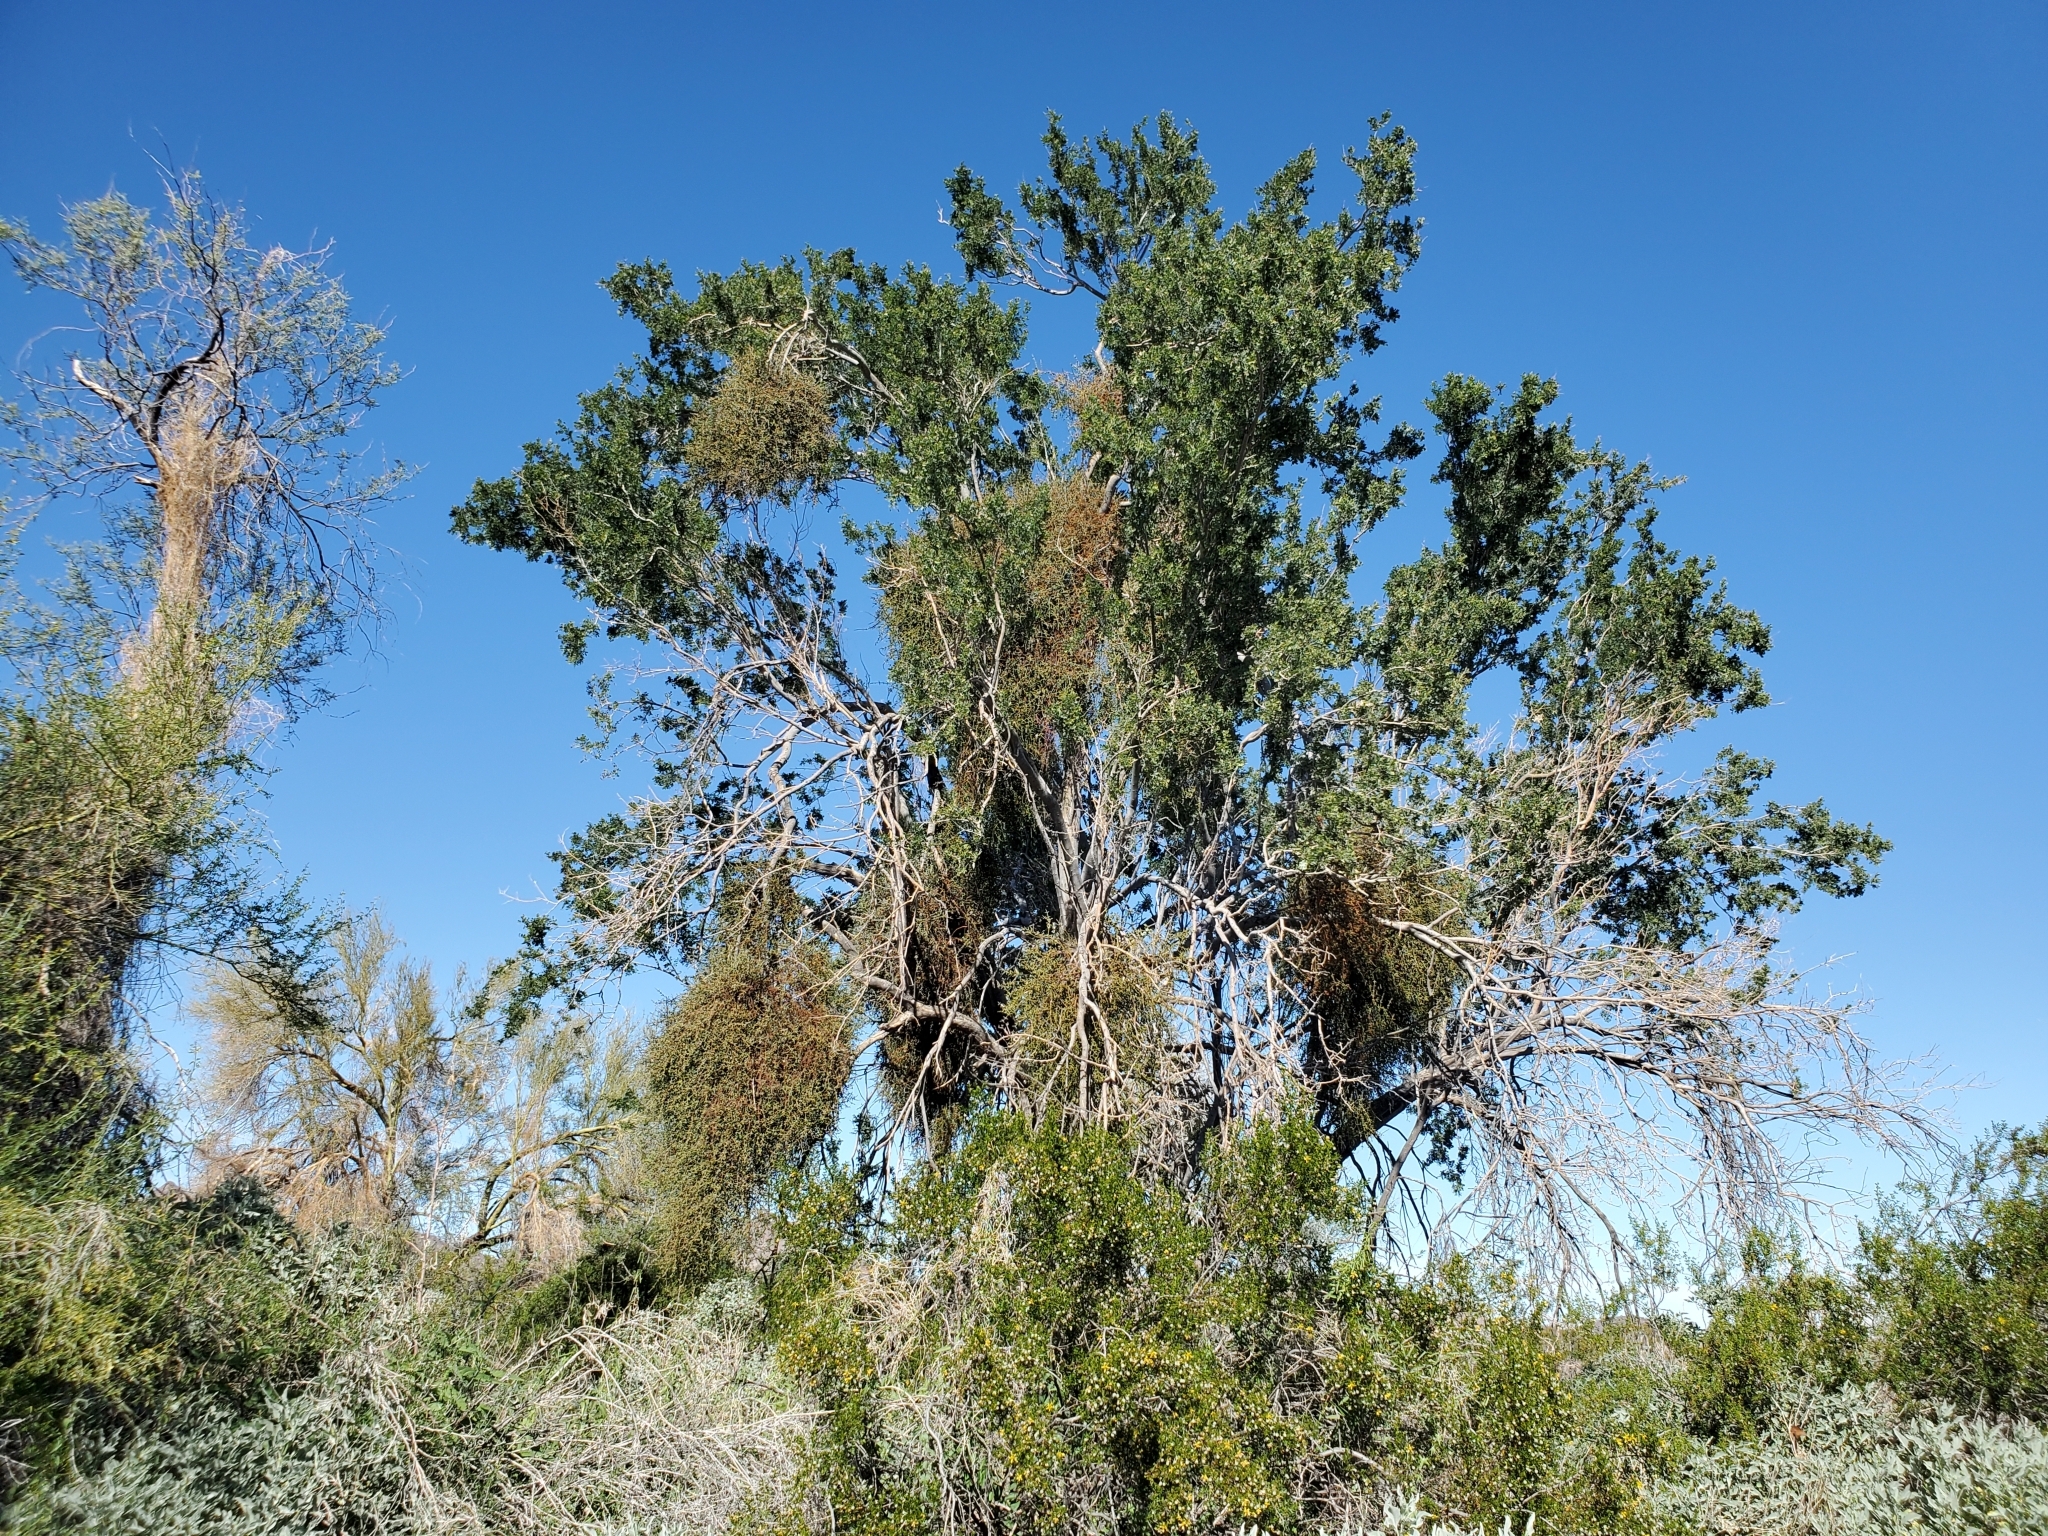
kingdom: Plantae
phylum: Tracheophyta
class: Magnoliopsida
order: Fabales
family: Fabaceae
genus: Olneya
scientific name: Olneya tesota
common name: Desert ironwood
